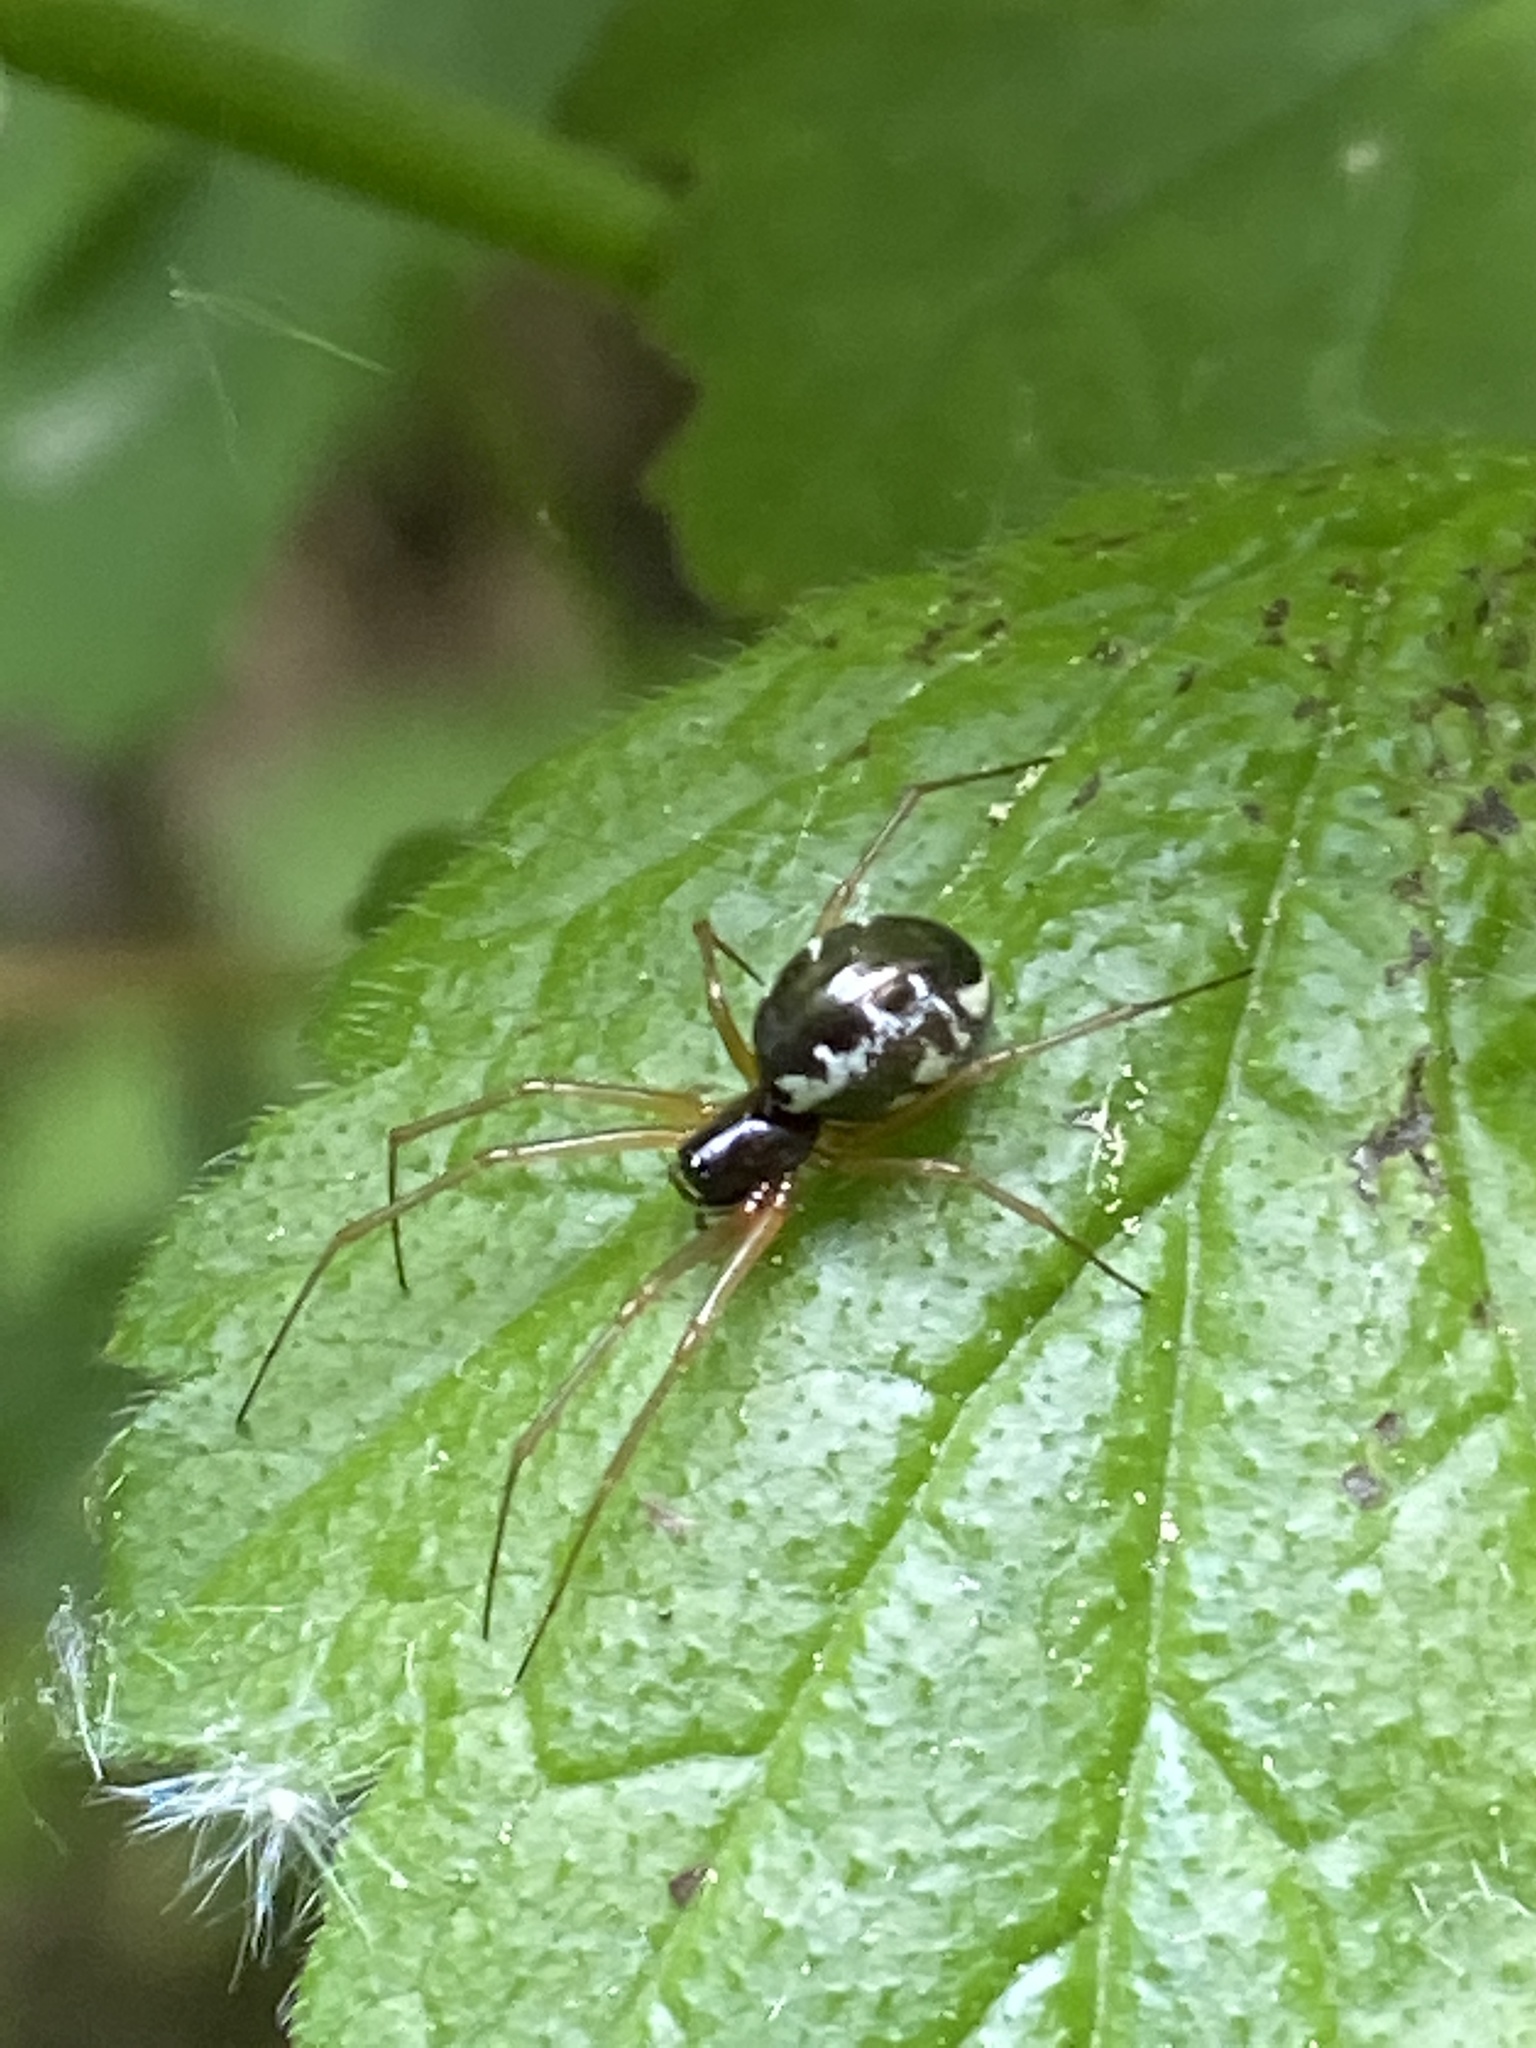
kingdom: Animalia
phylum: Arthropoda
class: Arachnida
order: Araneae
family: Linyphiidae
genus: Linyphia
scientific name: Linyphia hortensis
